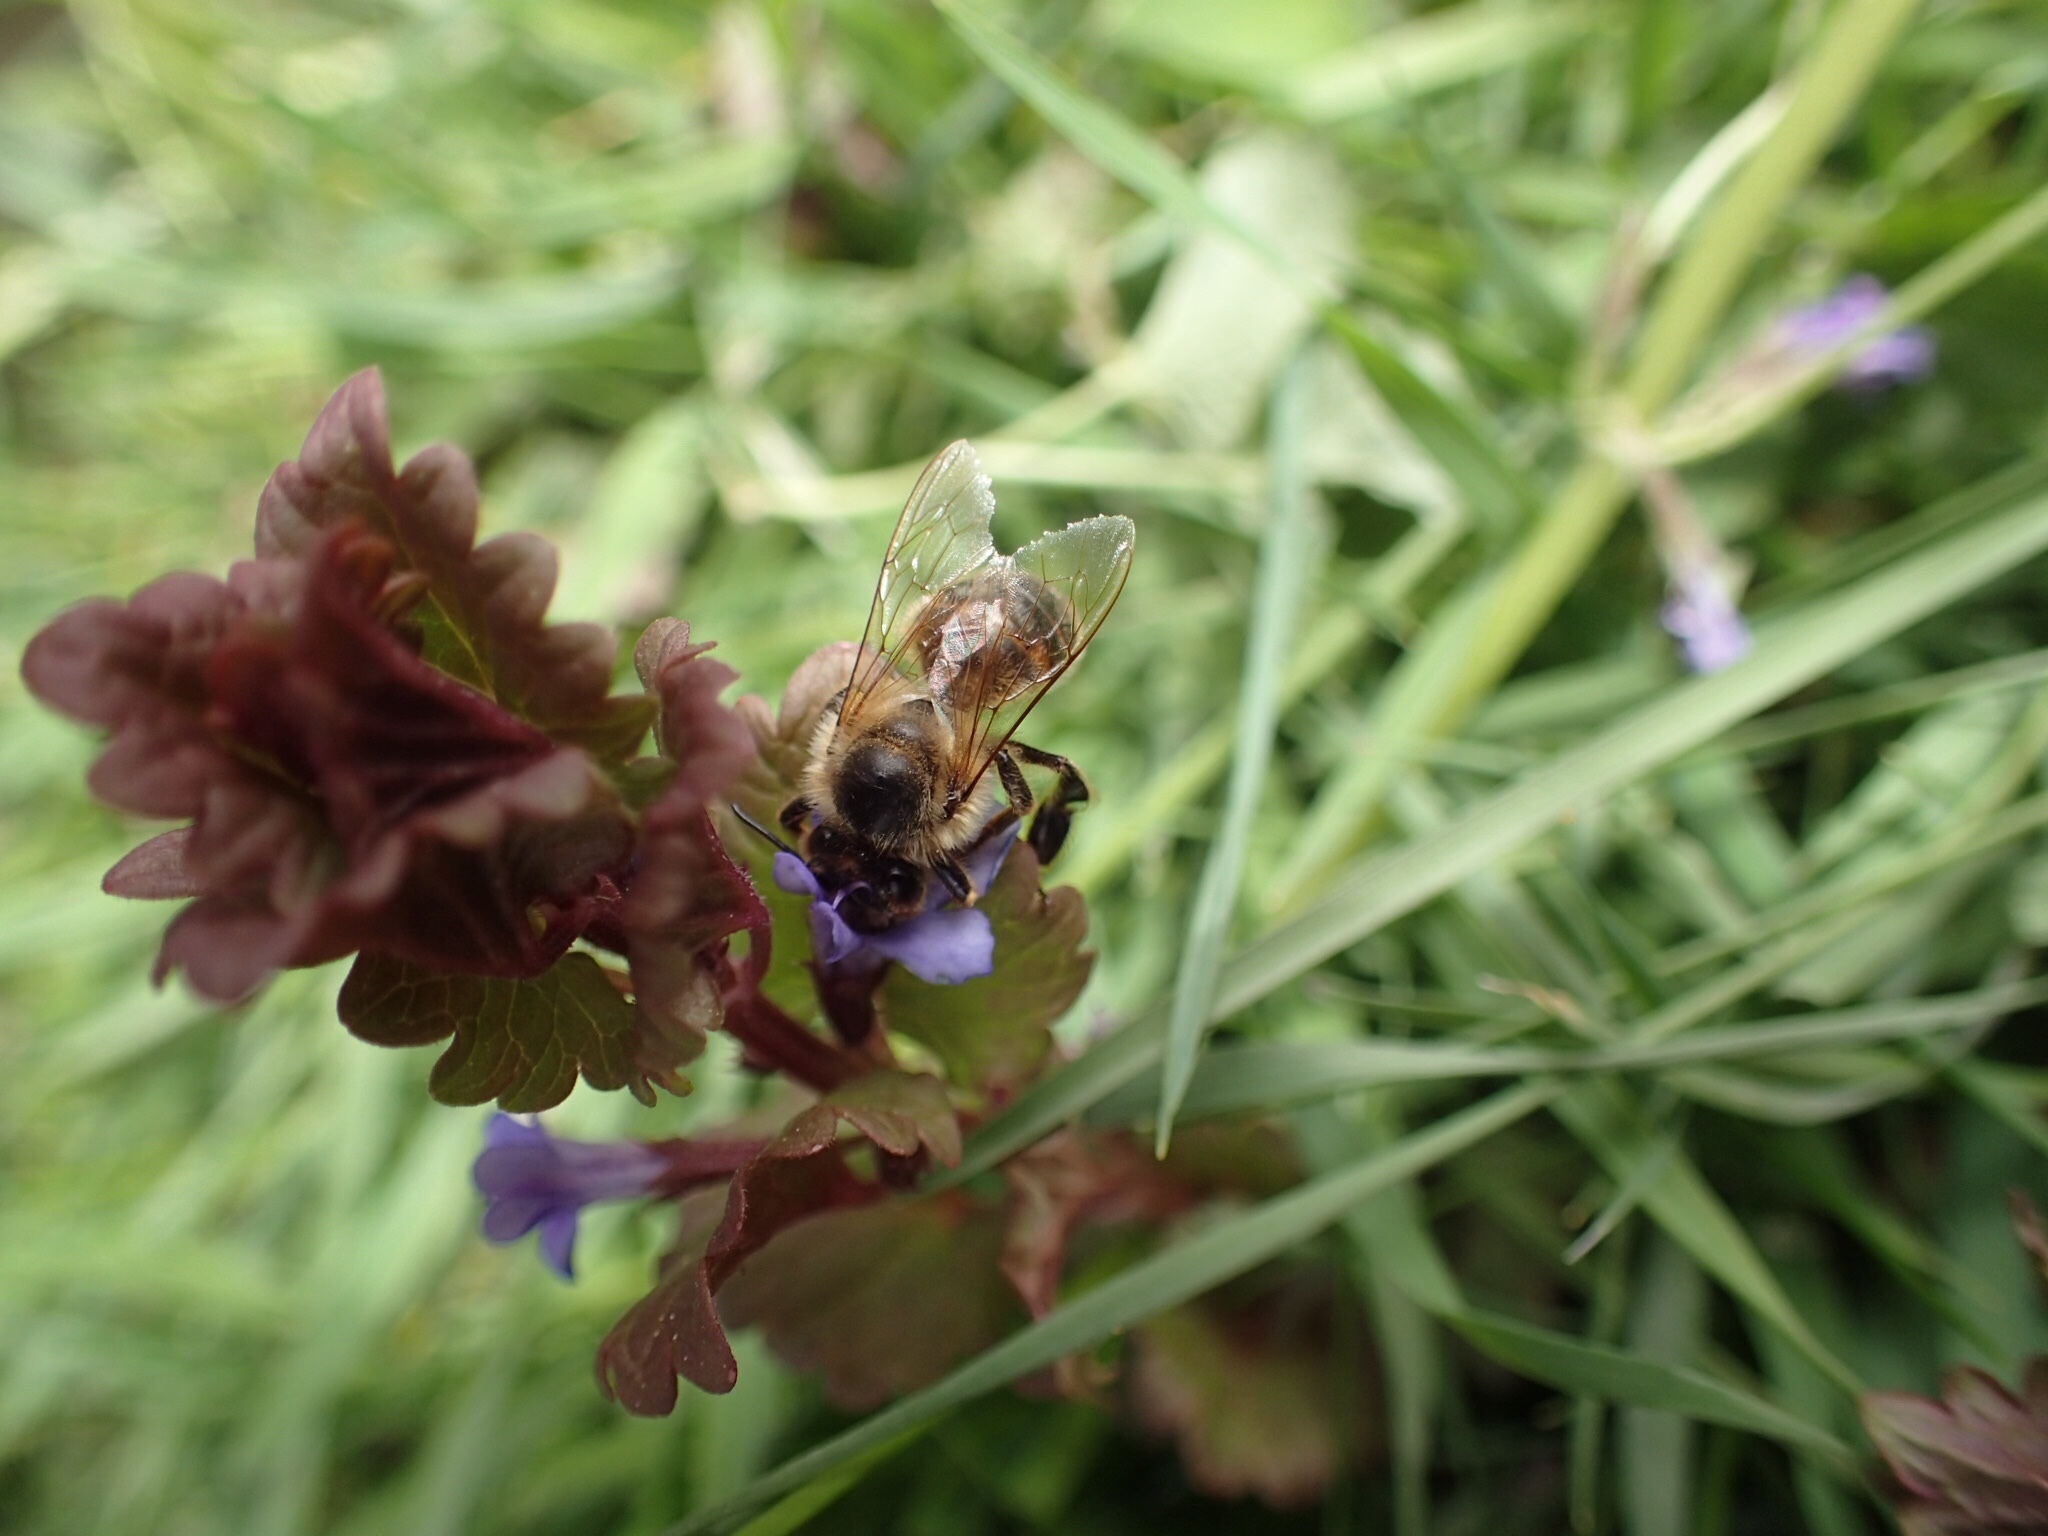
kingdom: Animalia
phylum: Arthropoda
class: Insecta
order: Hymenoptera
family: Apidae
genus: Apis
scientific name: Apis mellifera
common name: Honey bee
